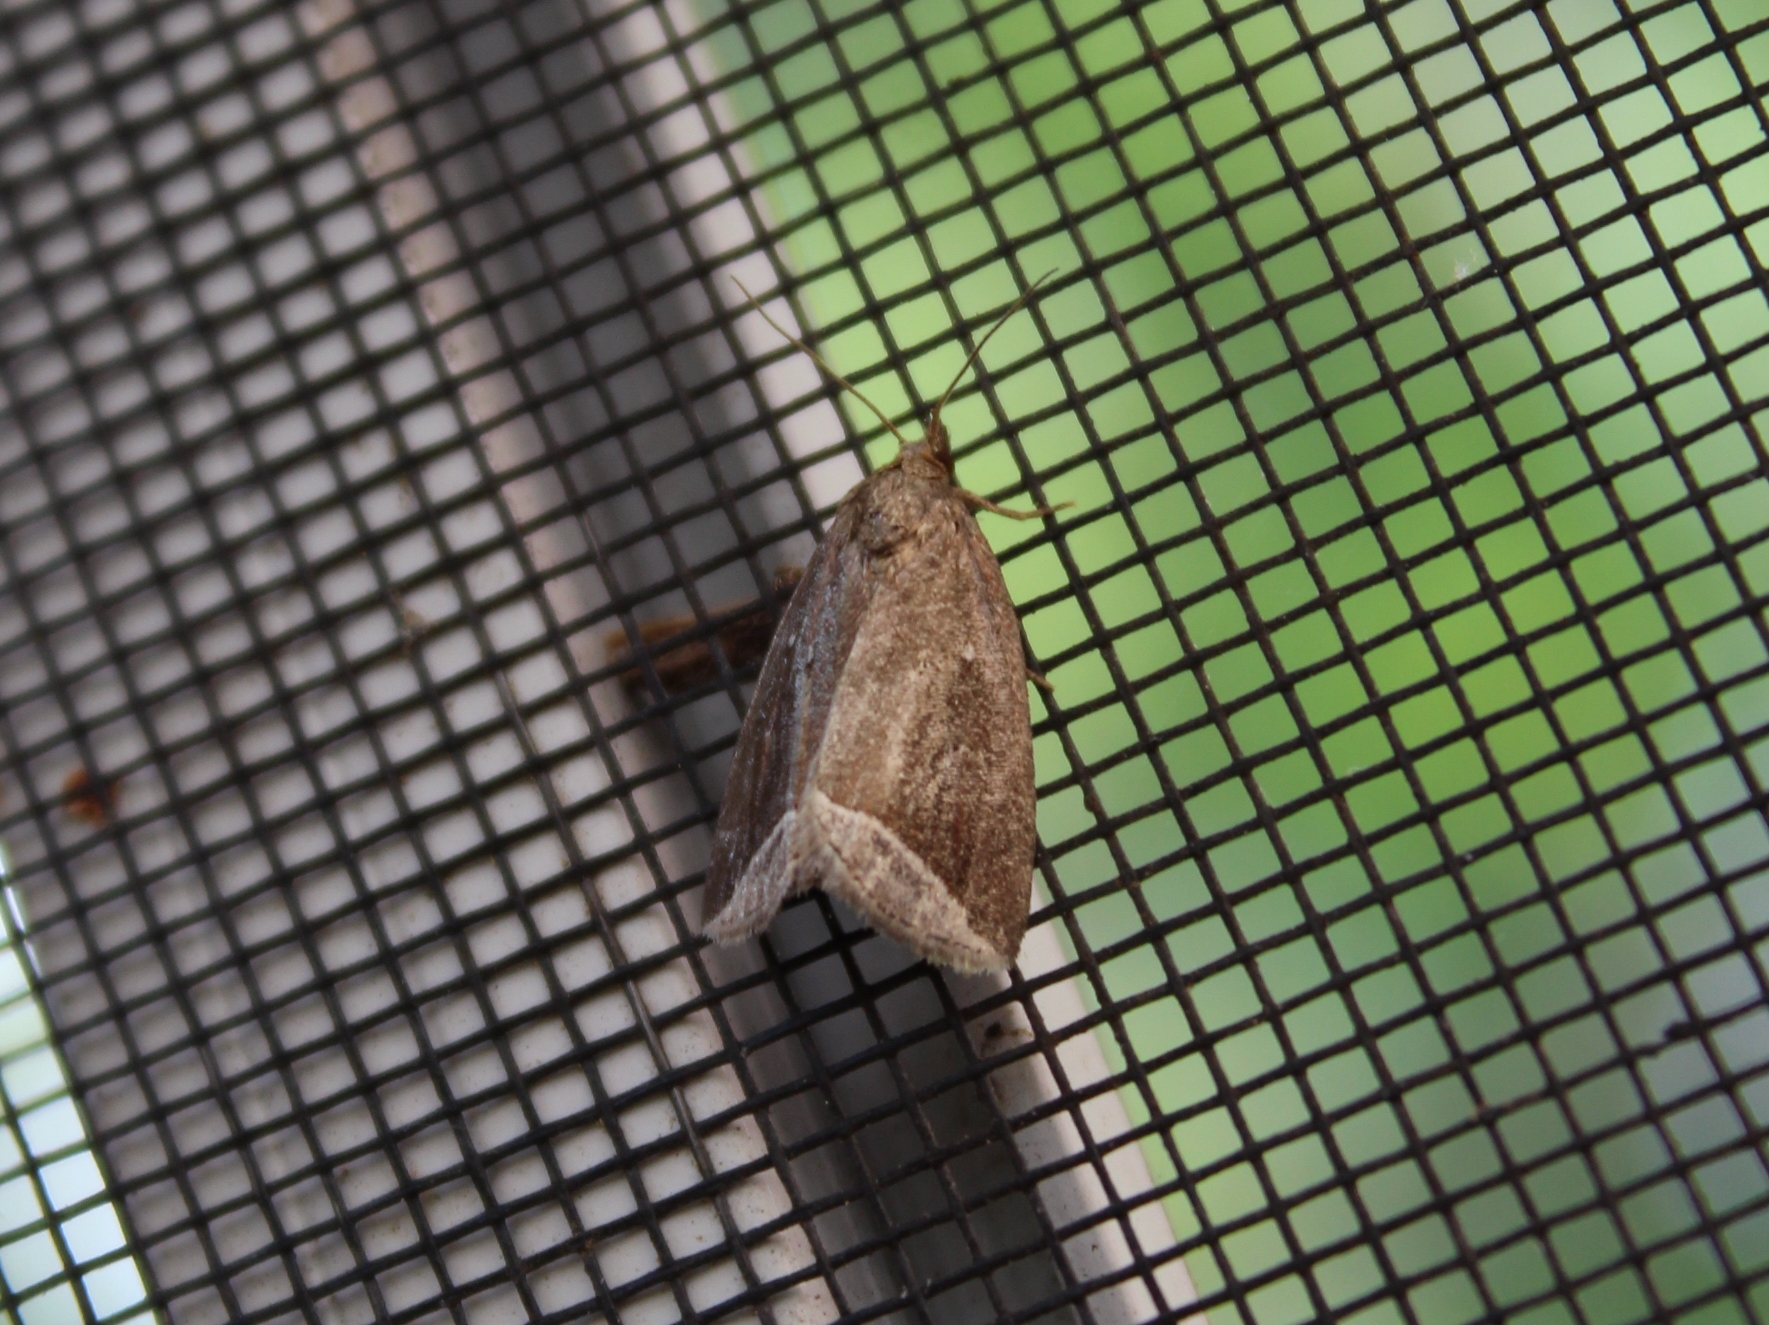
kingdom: Animalia
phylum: Arthropoda
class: Insecta
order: Lepidoptera
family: Erebidae
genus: Capis
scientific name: Capis curvata
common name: Curved halter moth
